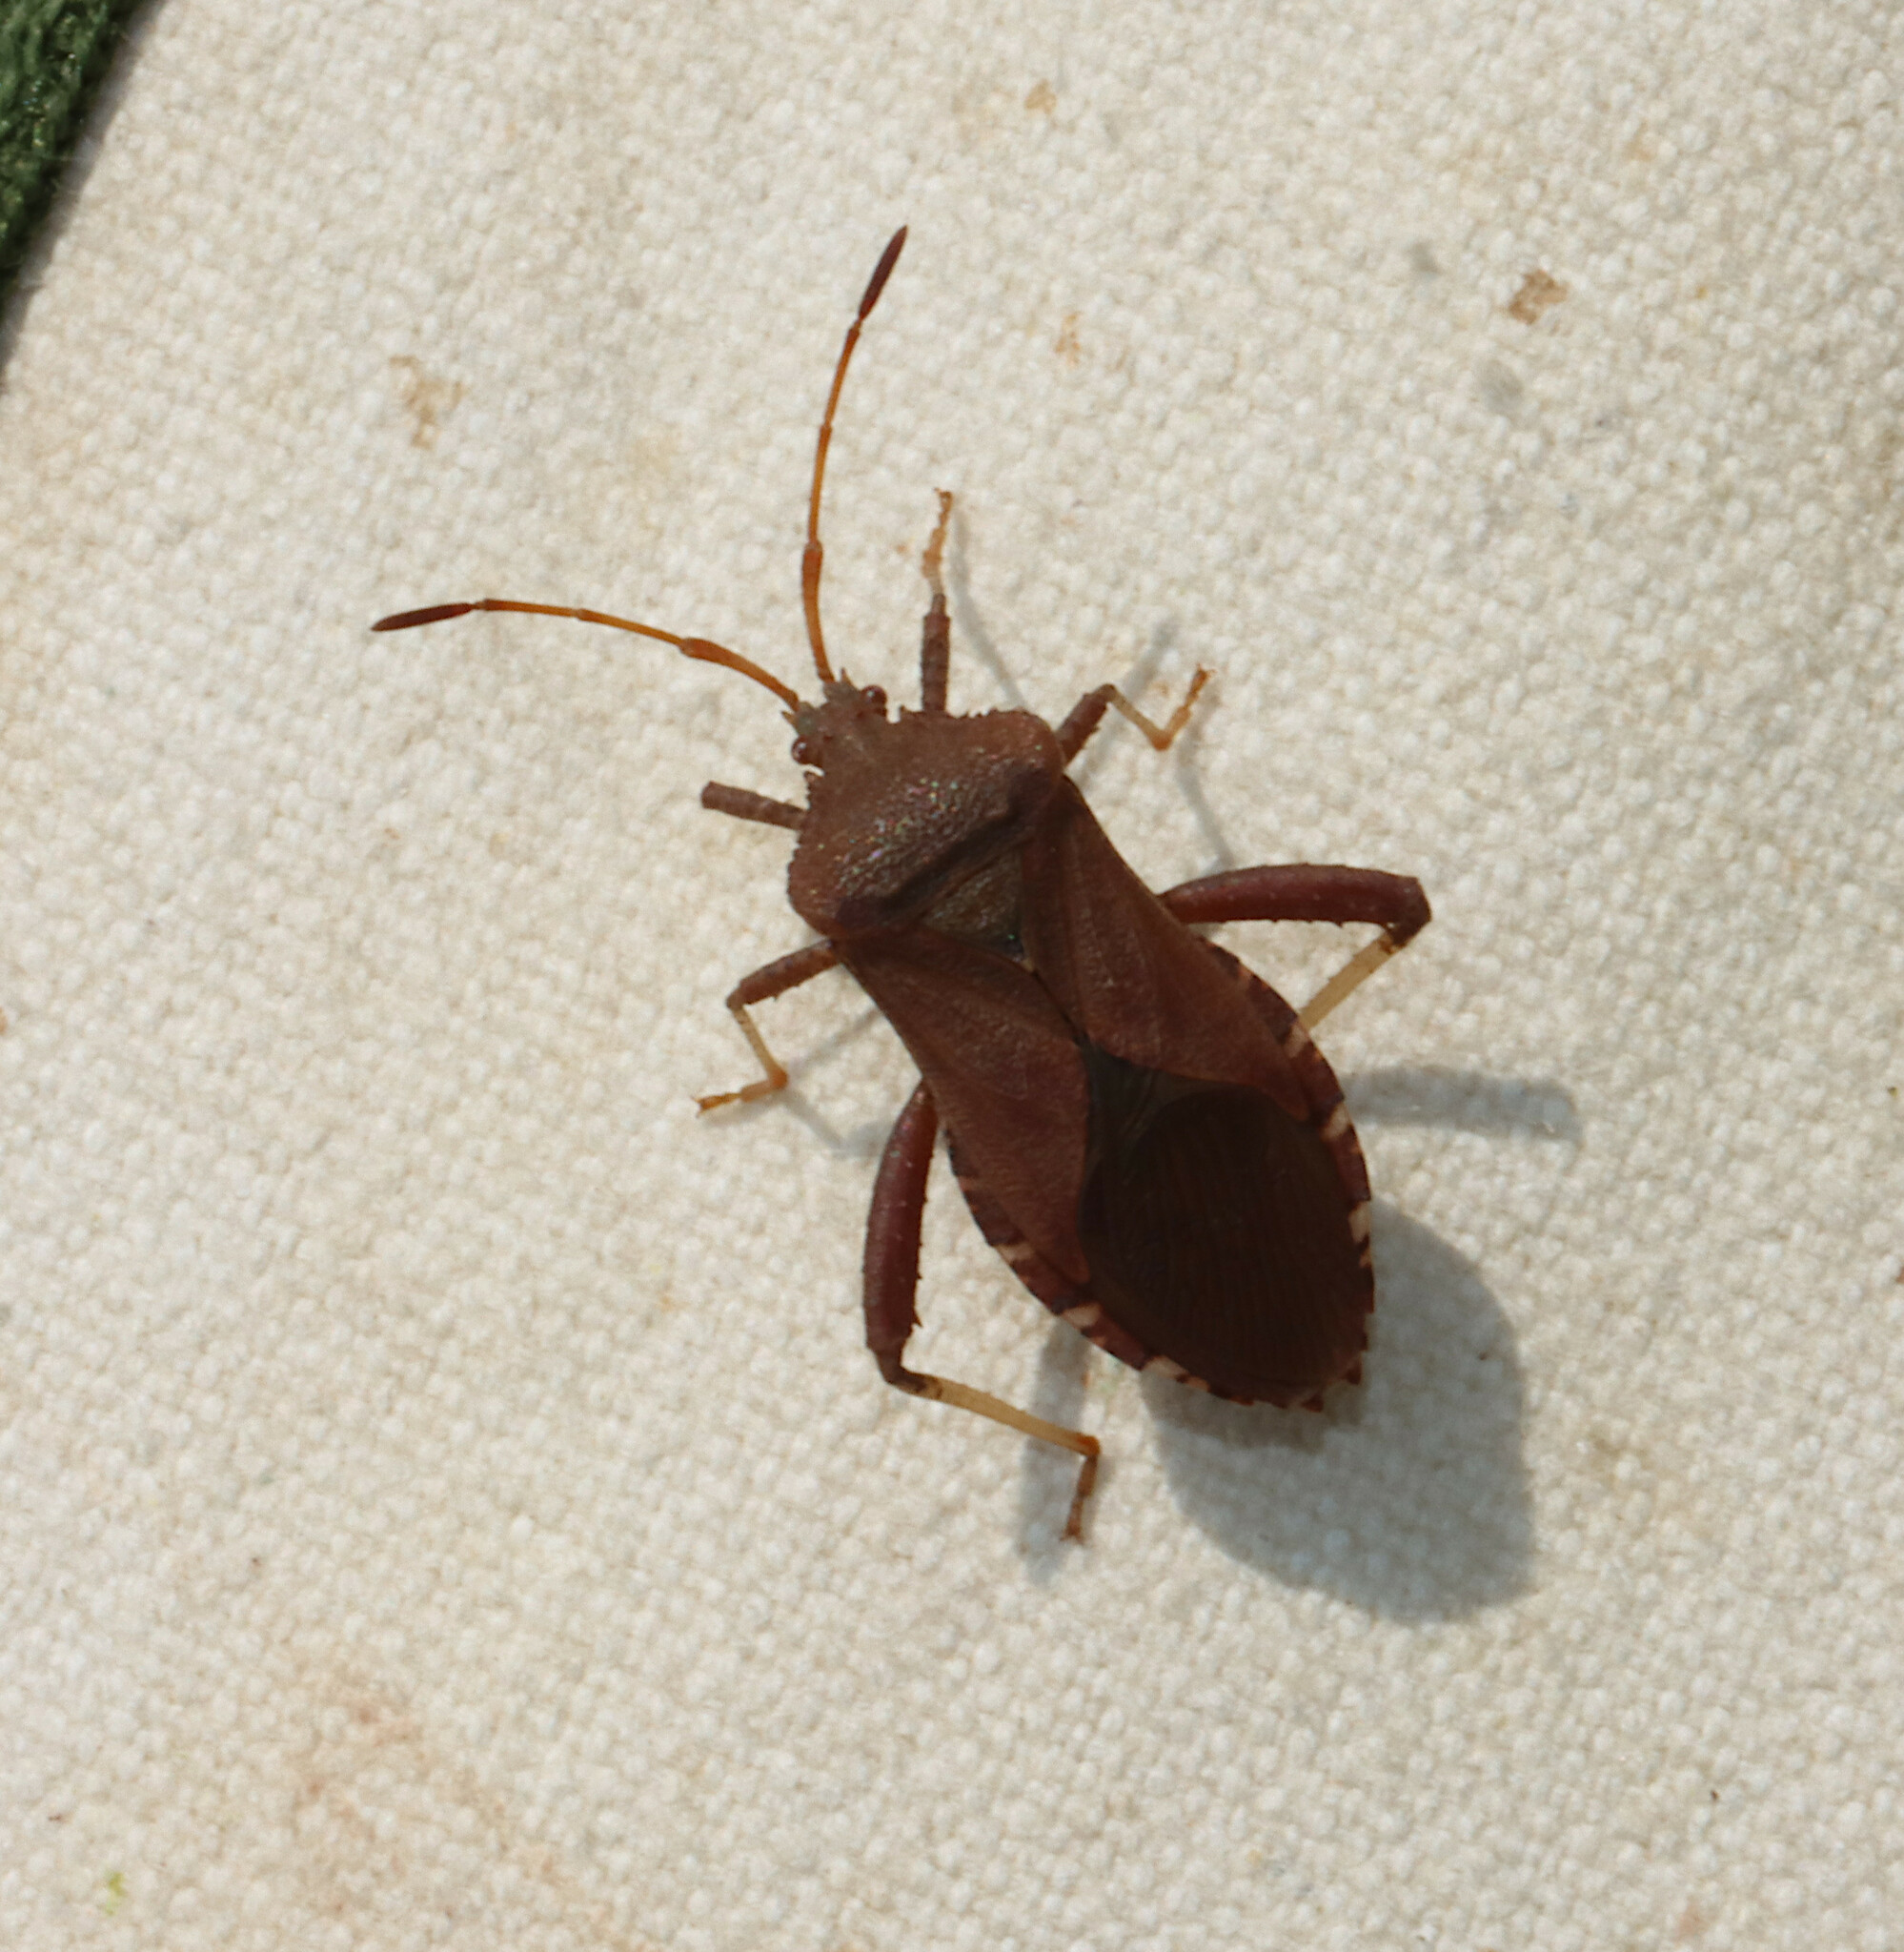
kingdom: Animalia
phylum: Arthropoda
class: Insecta
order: Hemiptera
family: Coreidae
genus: Euthochtha
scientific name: Euthochtha galeator
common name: Helmeted squash bug
